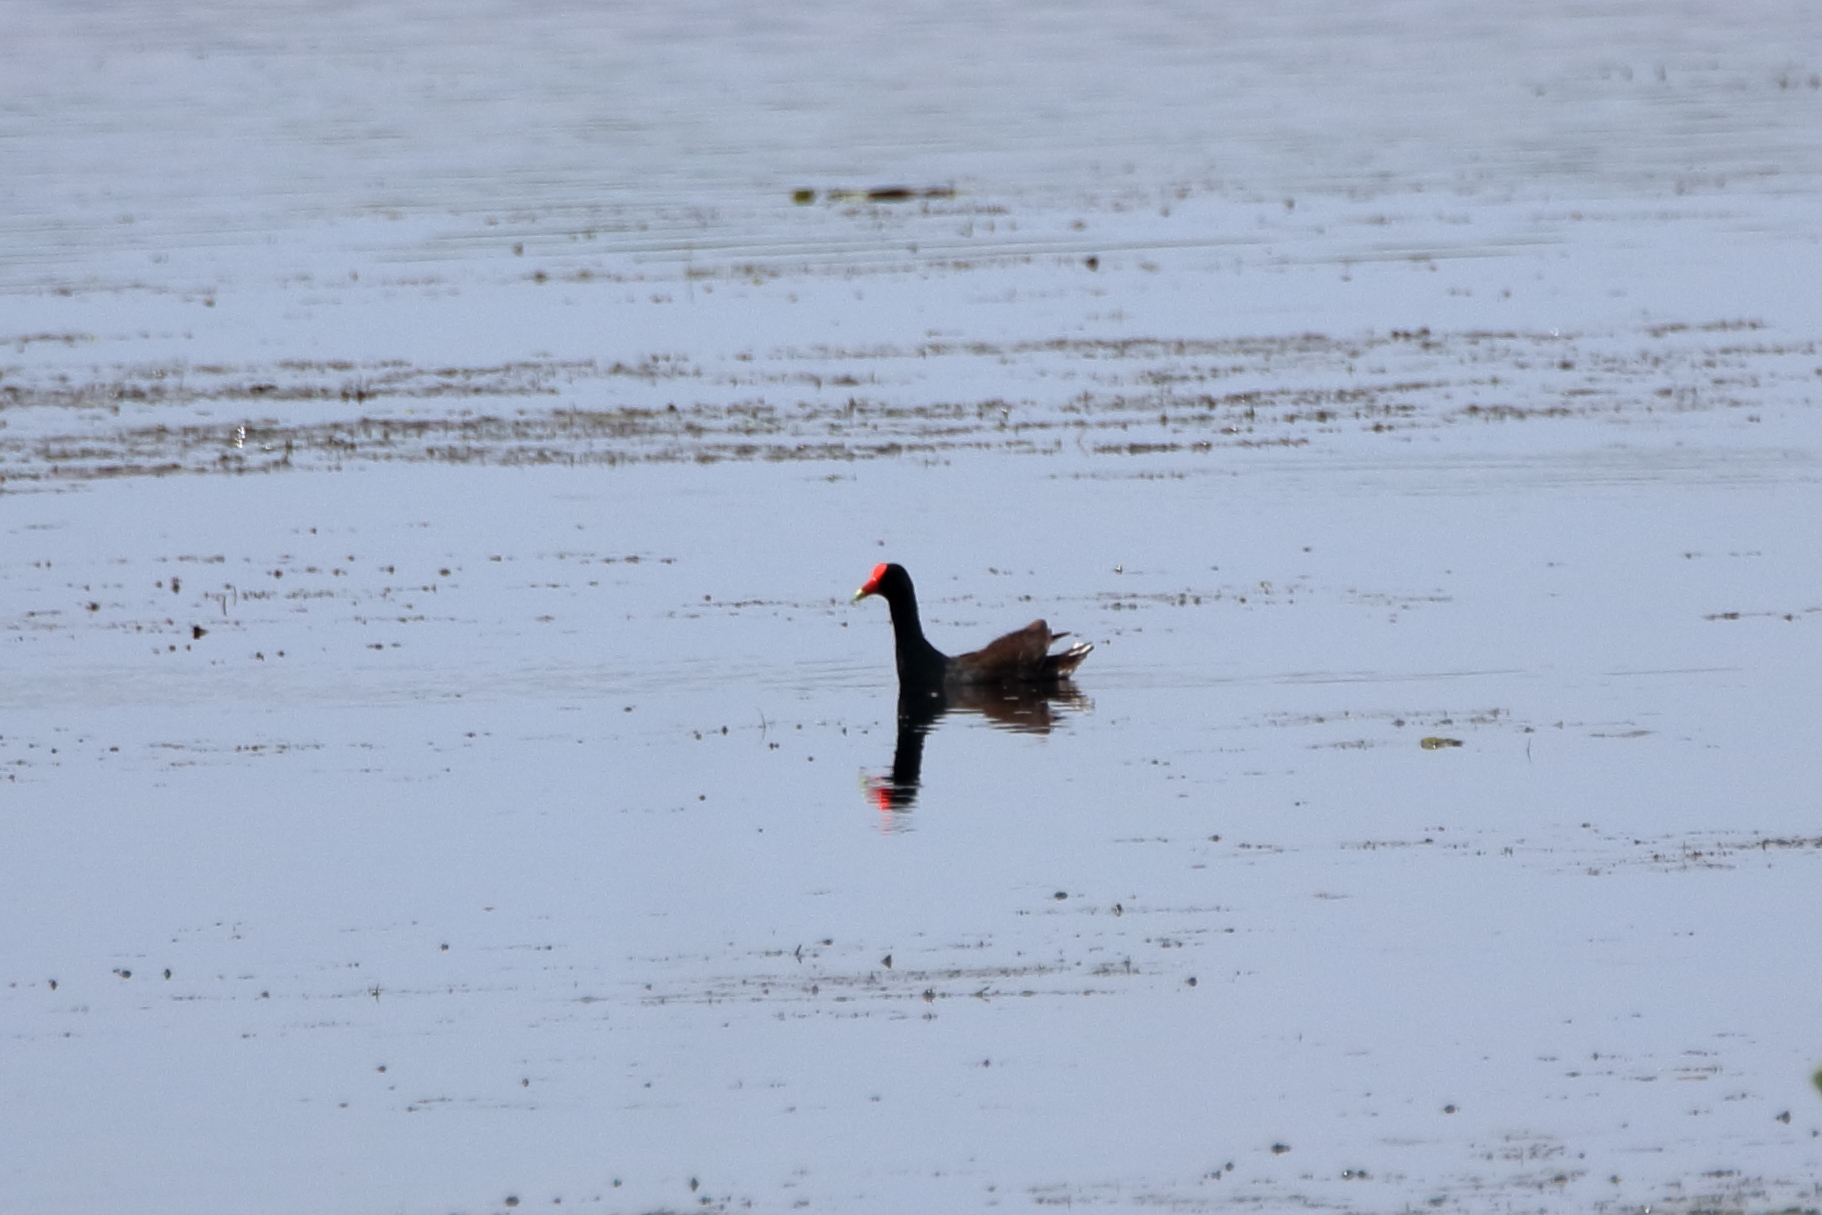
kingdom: Animalia
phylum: Chordata
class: Aves
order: Gruiformes
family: Rallidae
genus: Gallinula
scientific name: Gallinula chloropus
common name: Common moorhen
